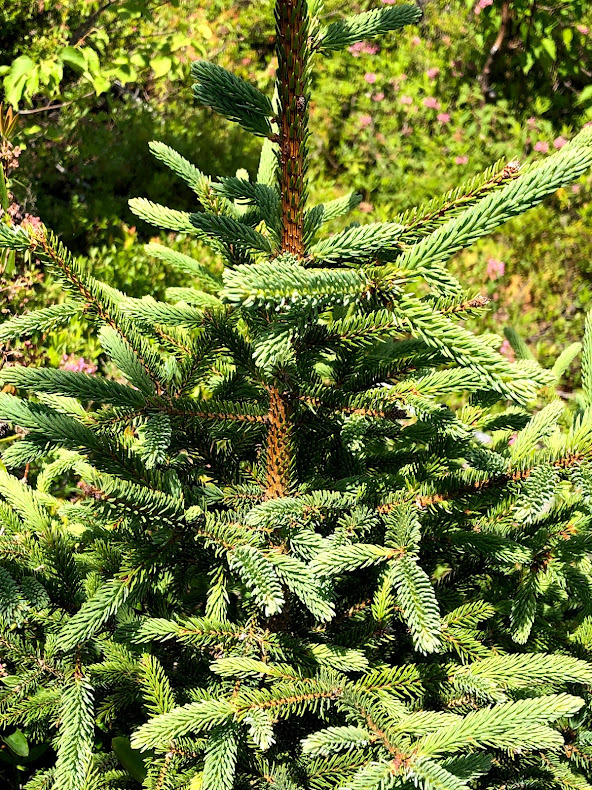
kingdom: Plantae
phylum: Tracheophyta
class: Pinopsida
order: Pinales
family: Pinaceae
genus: Picea
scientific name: Picea mariana
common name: Black spruce
